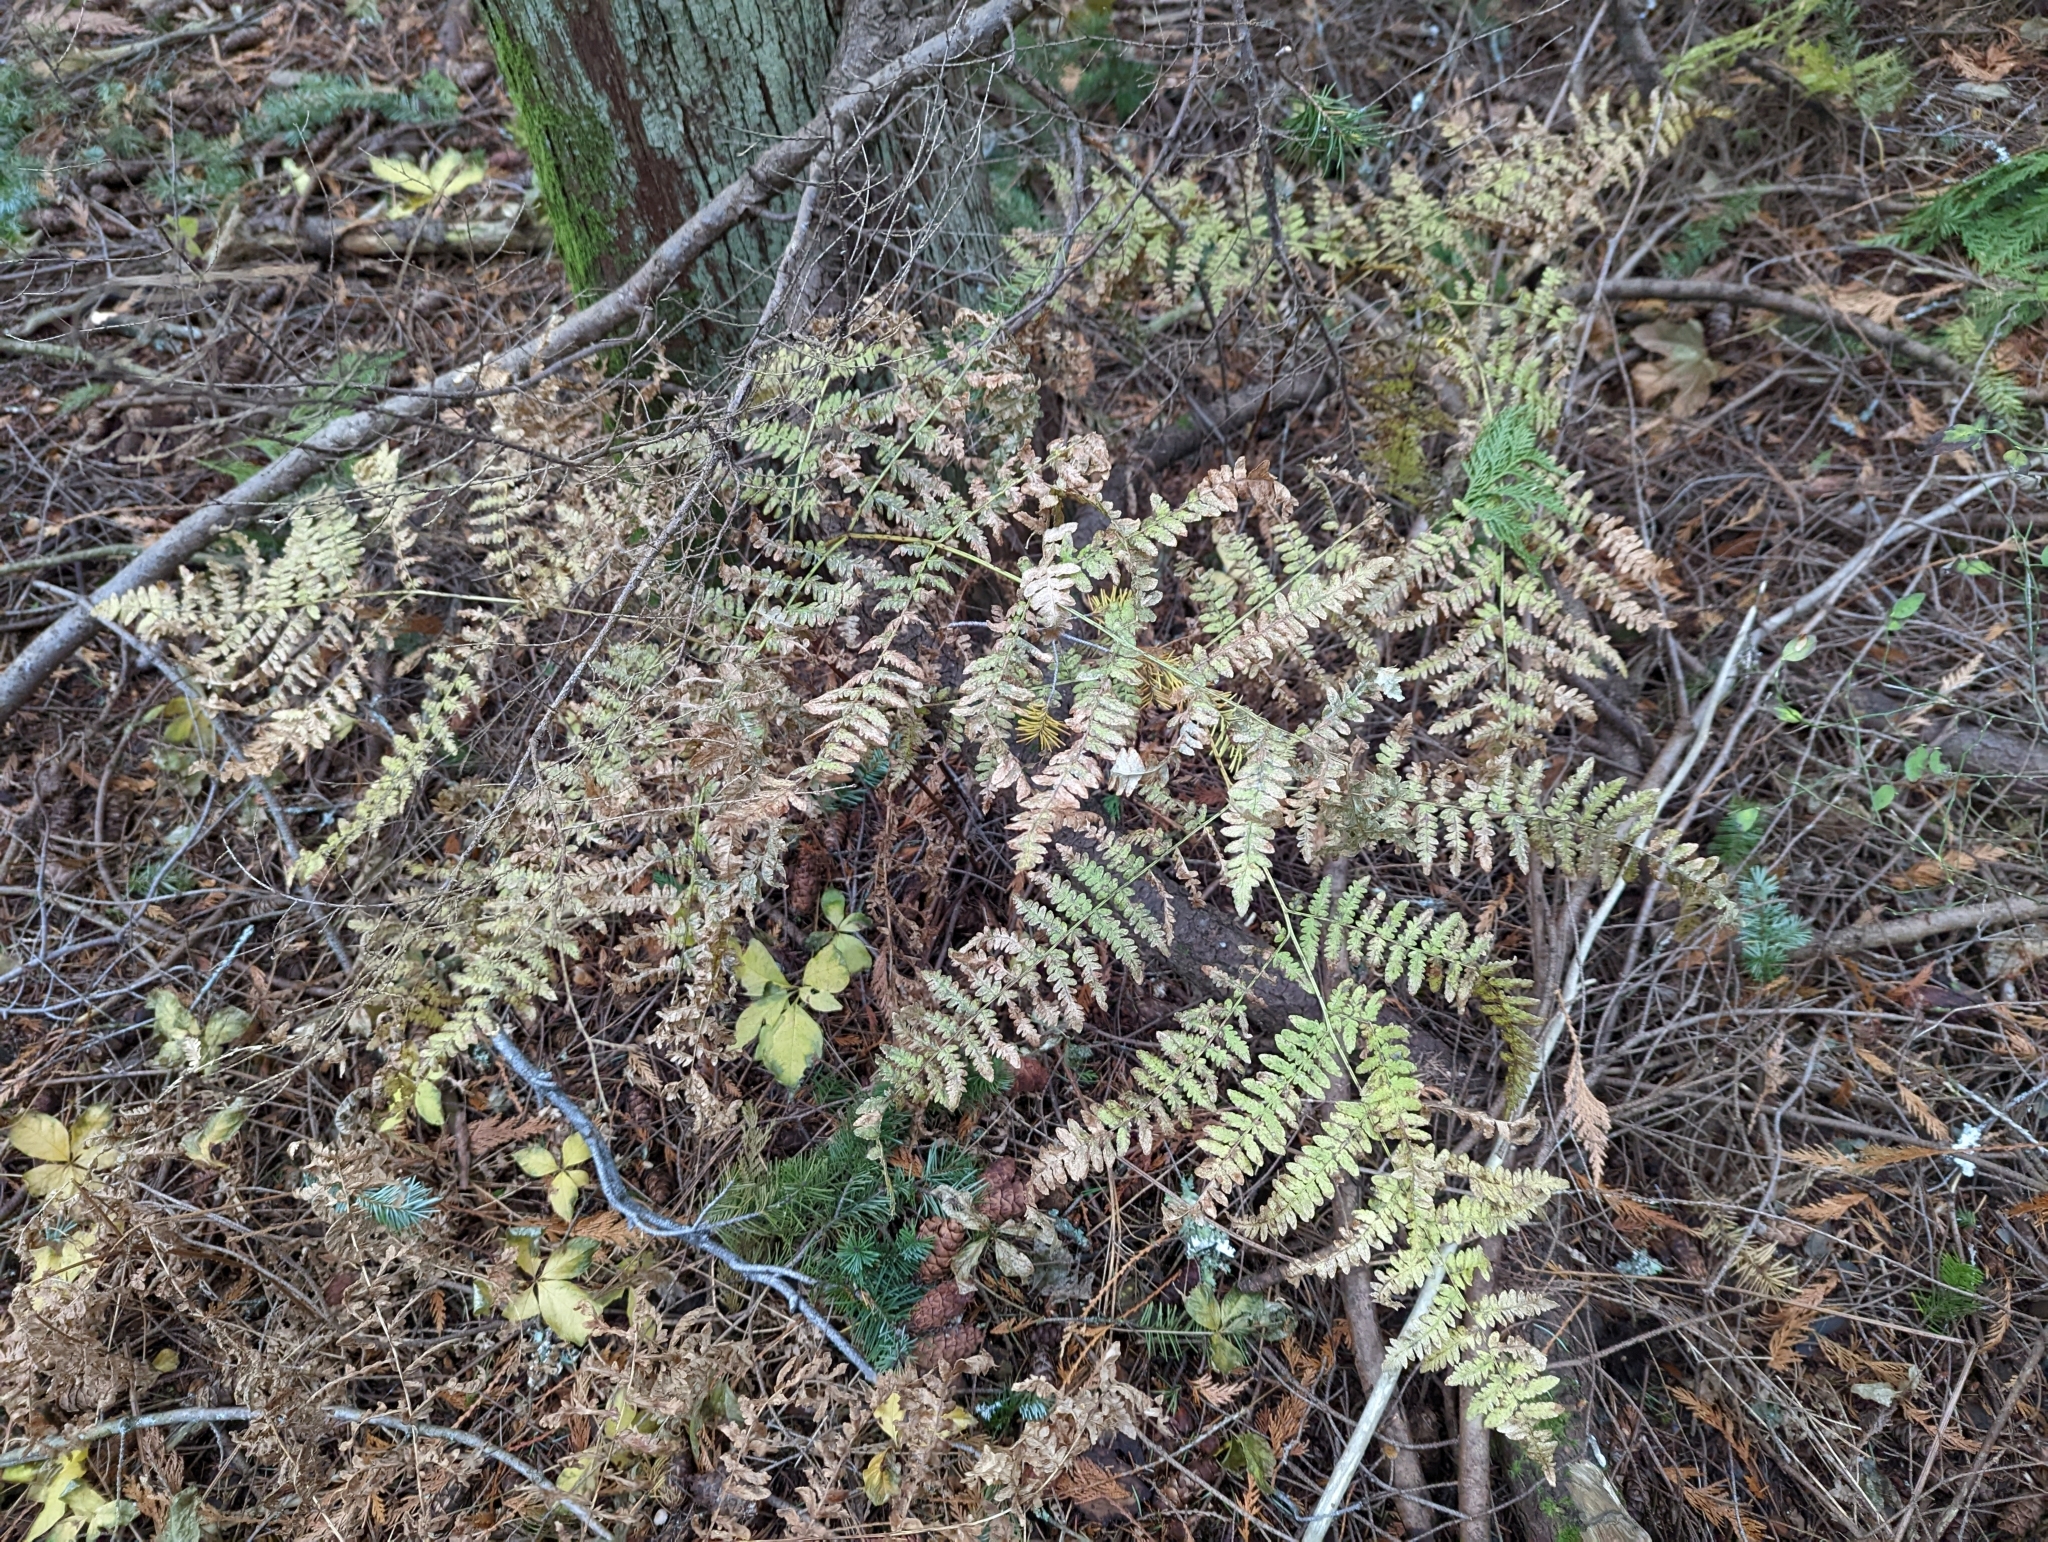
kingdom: Plantae
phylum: Tracheophyta
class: Polypodiopsida
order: Polypodiales
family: Dennstaedtiaceae
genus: Pteridium
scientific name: Pteridium aquilinum
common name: Bracken
